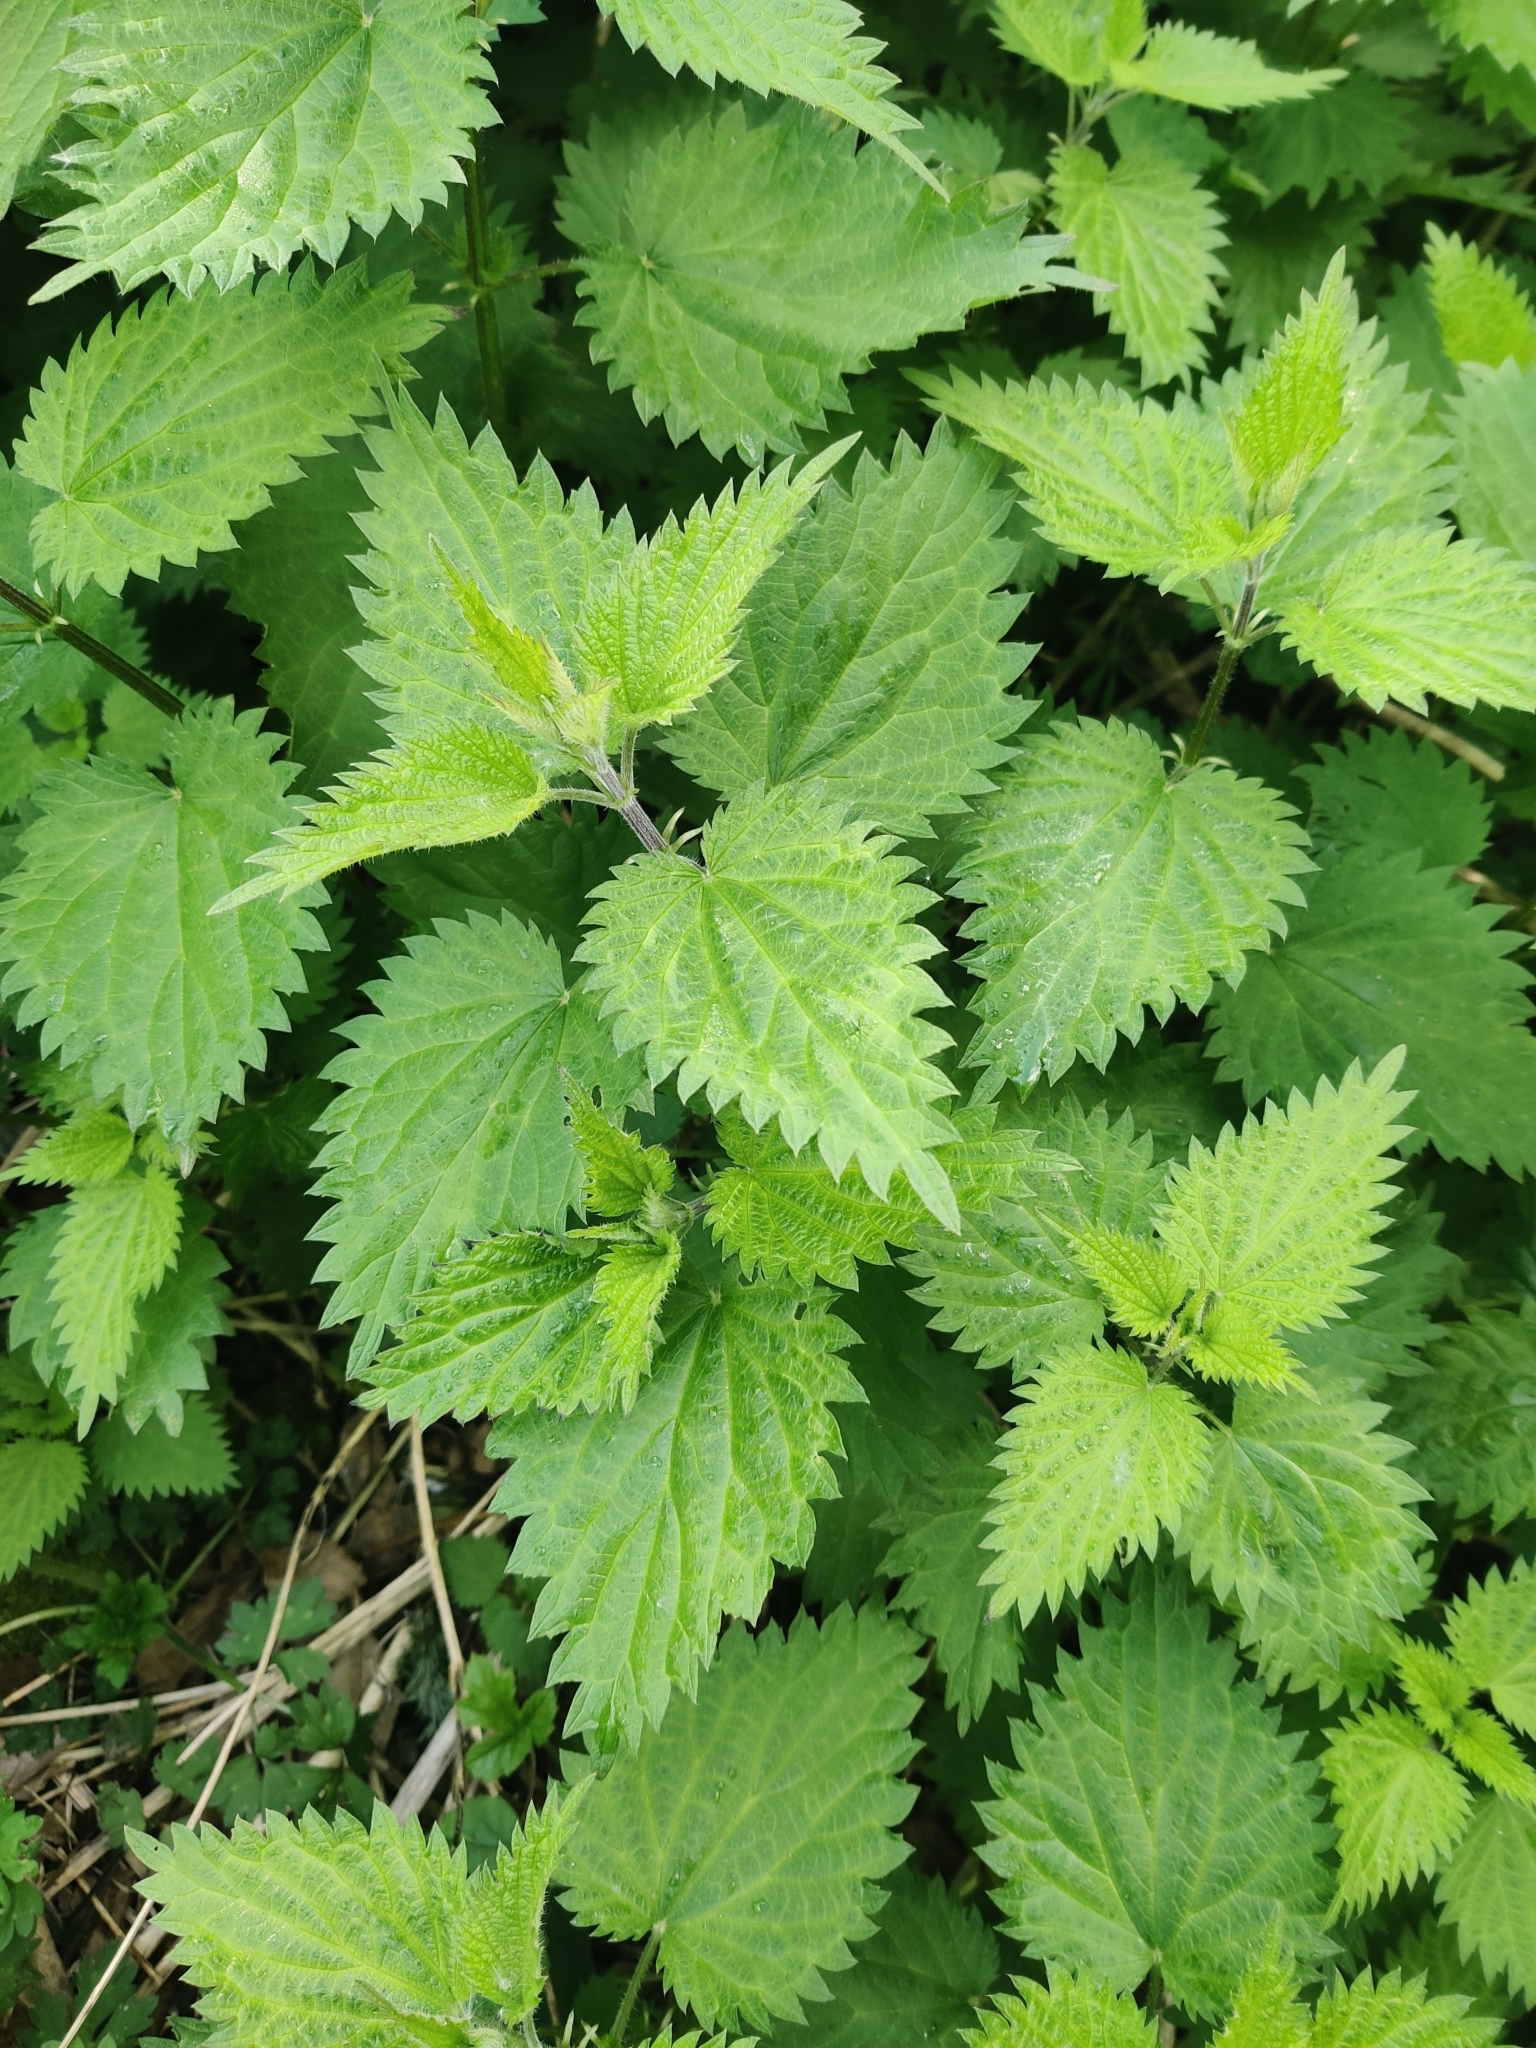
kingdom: Plantae
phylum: Tracheophyta
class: Magnoliopsida
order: Rosales
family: Urticaceae
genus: Urtica
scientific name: Urtica dioica
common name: Common nettle
